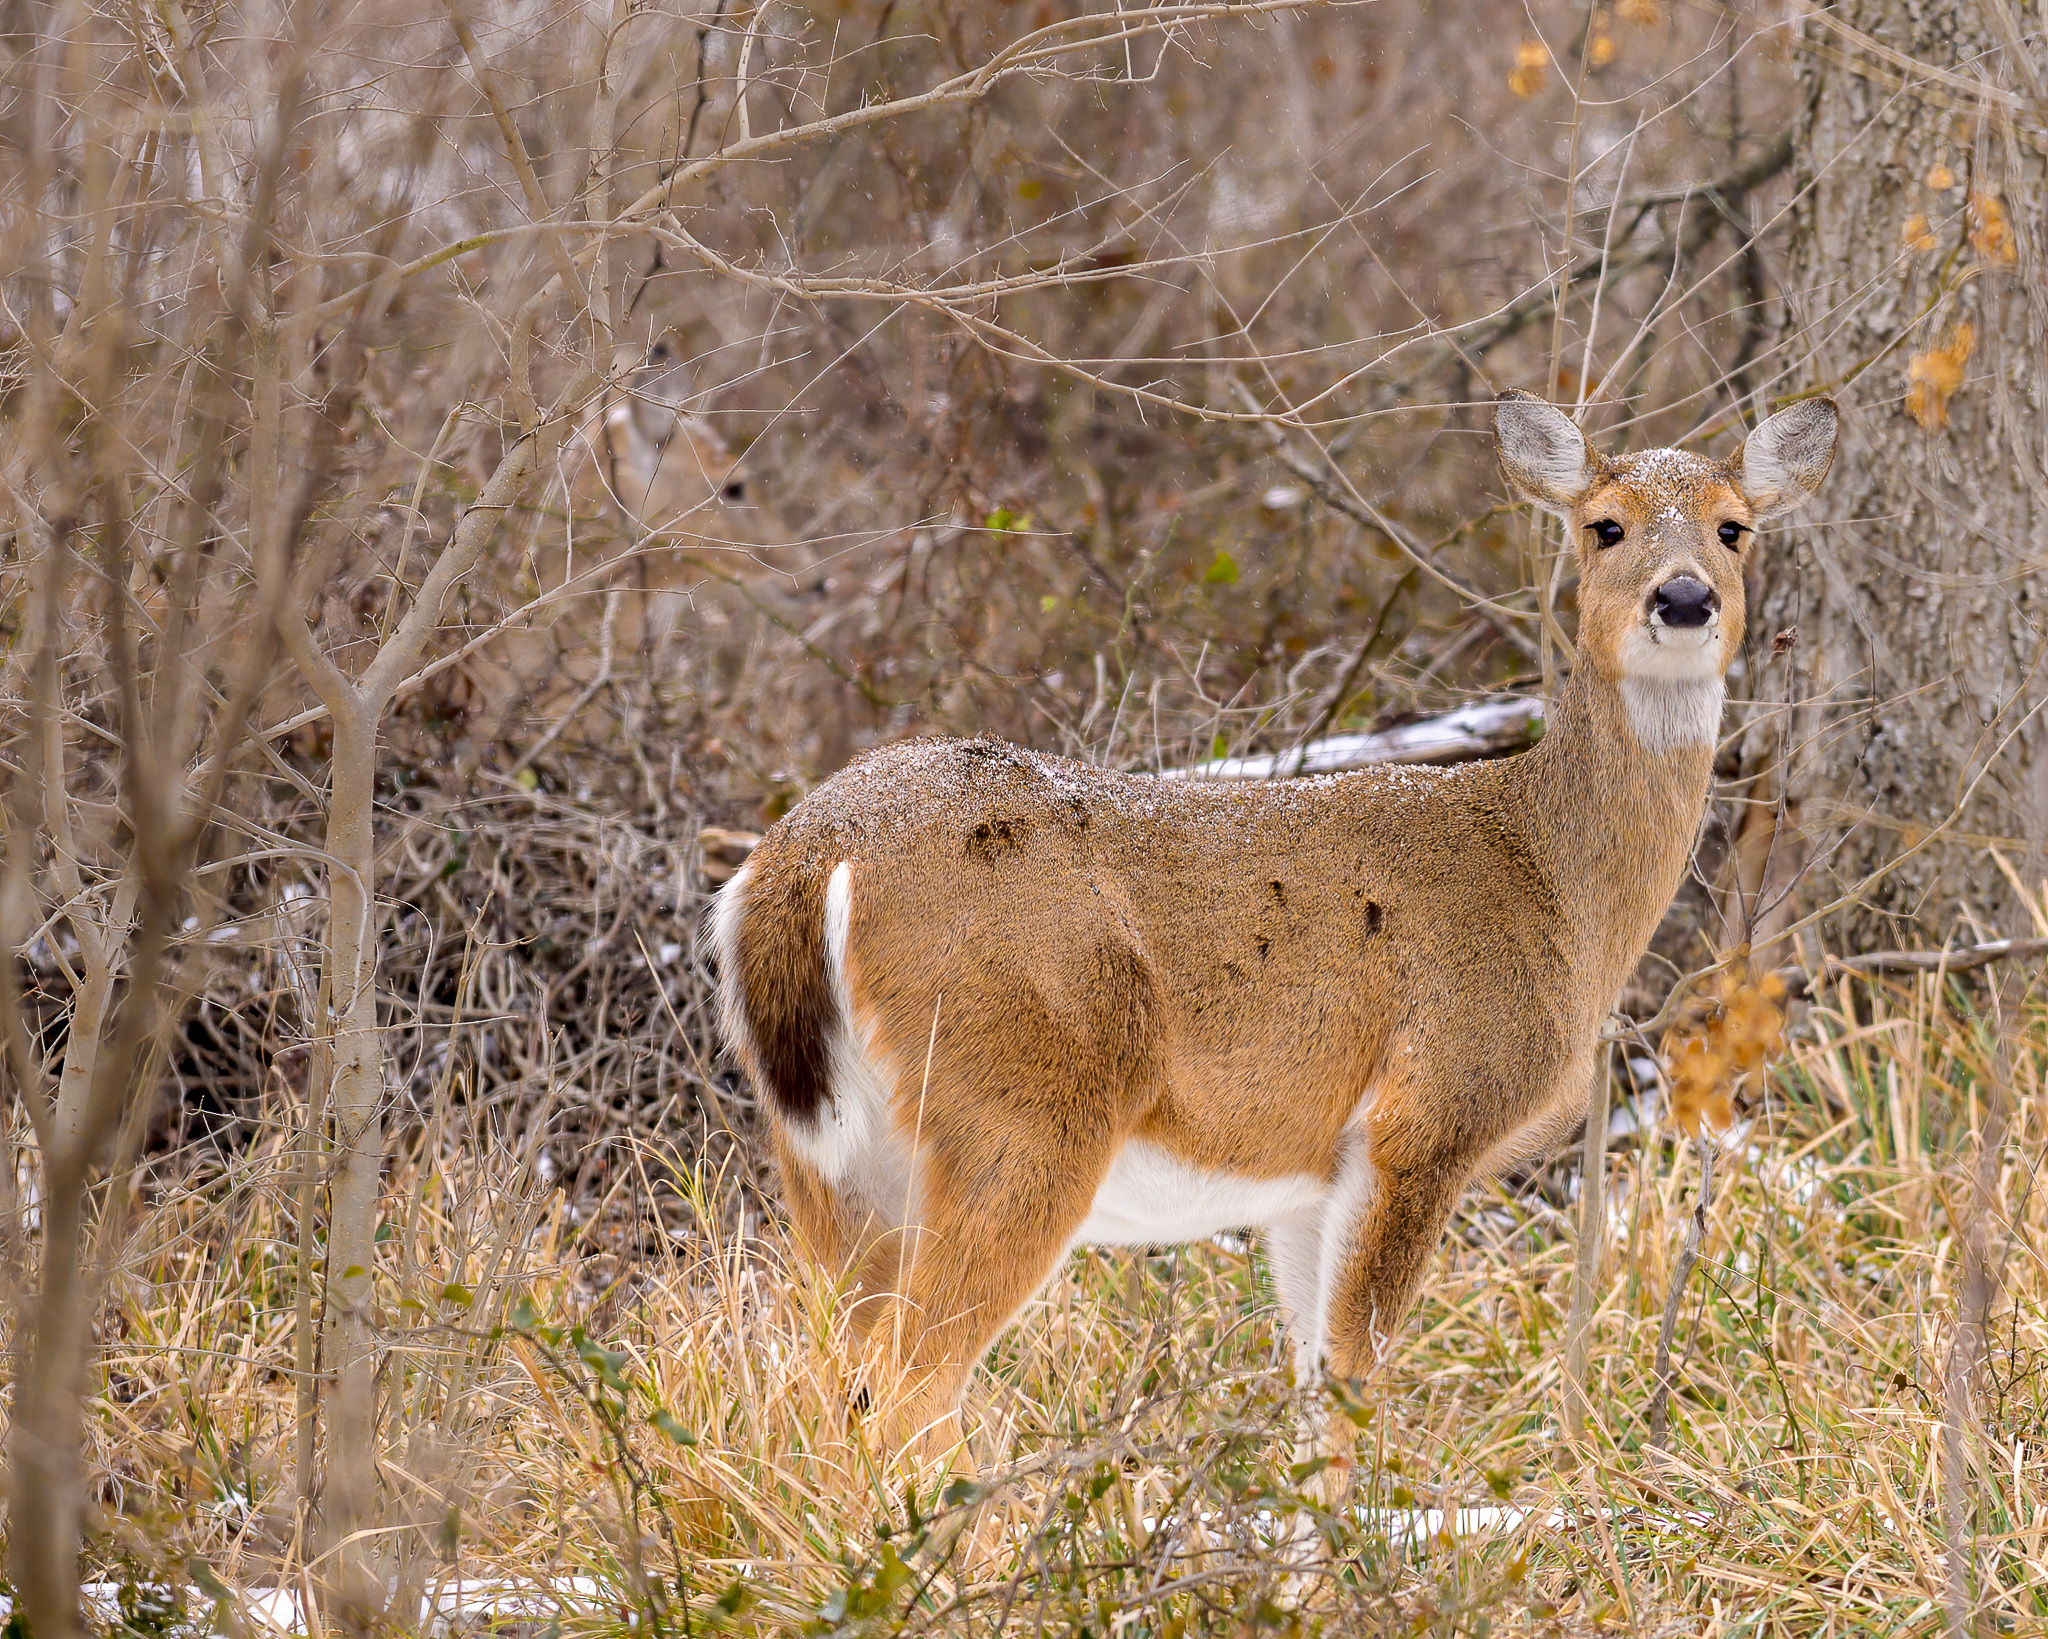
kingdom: Animalia
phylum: Chordata
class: Mammalia
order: Artiodactyla
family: Cervidae
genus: Odocoileus
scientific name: Odocoileus virginianus
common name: White-tailed deer
